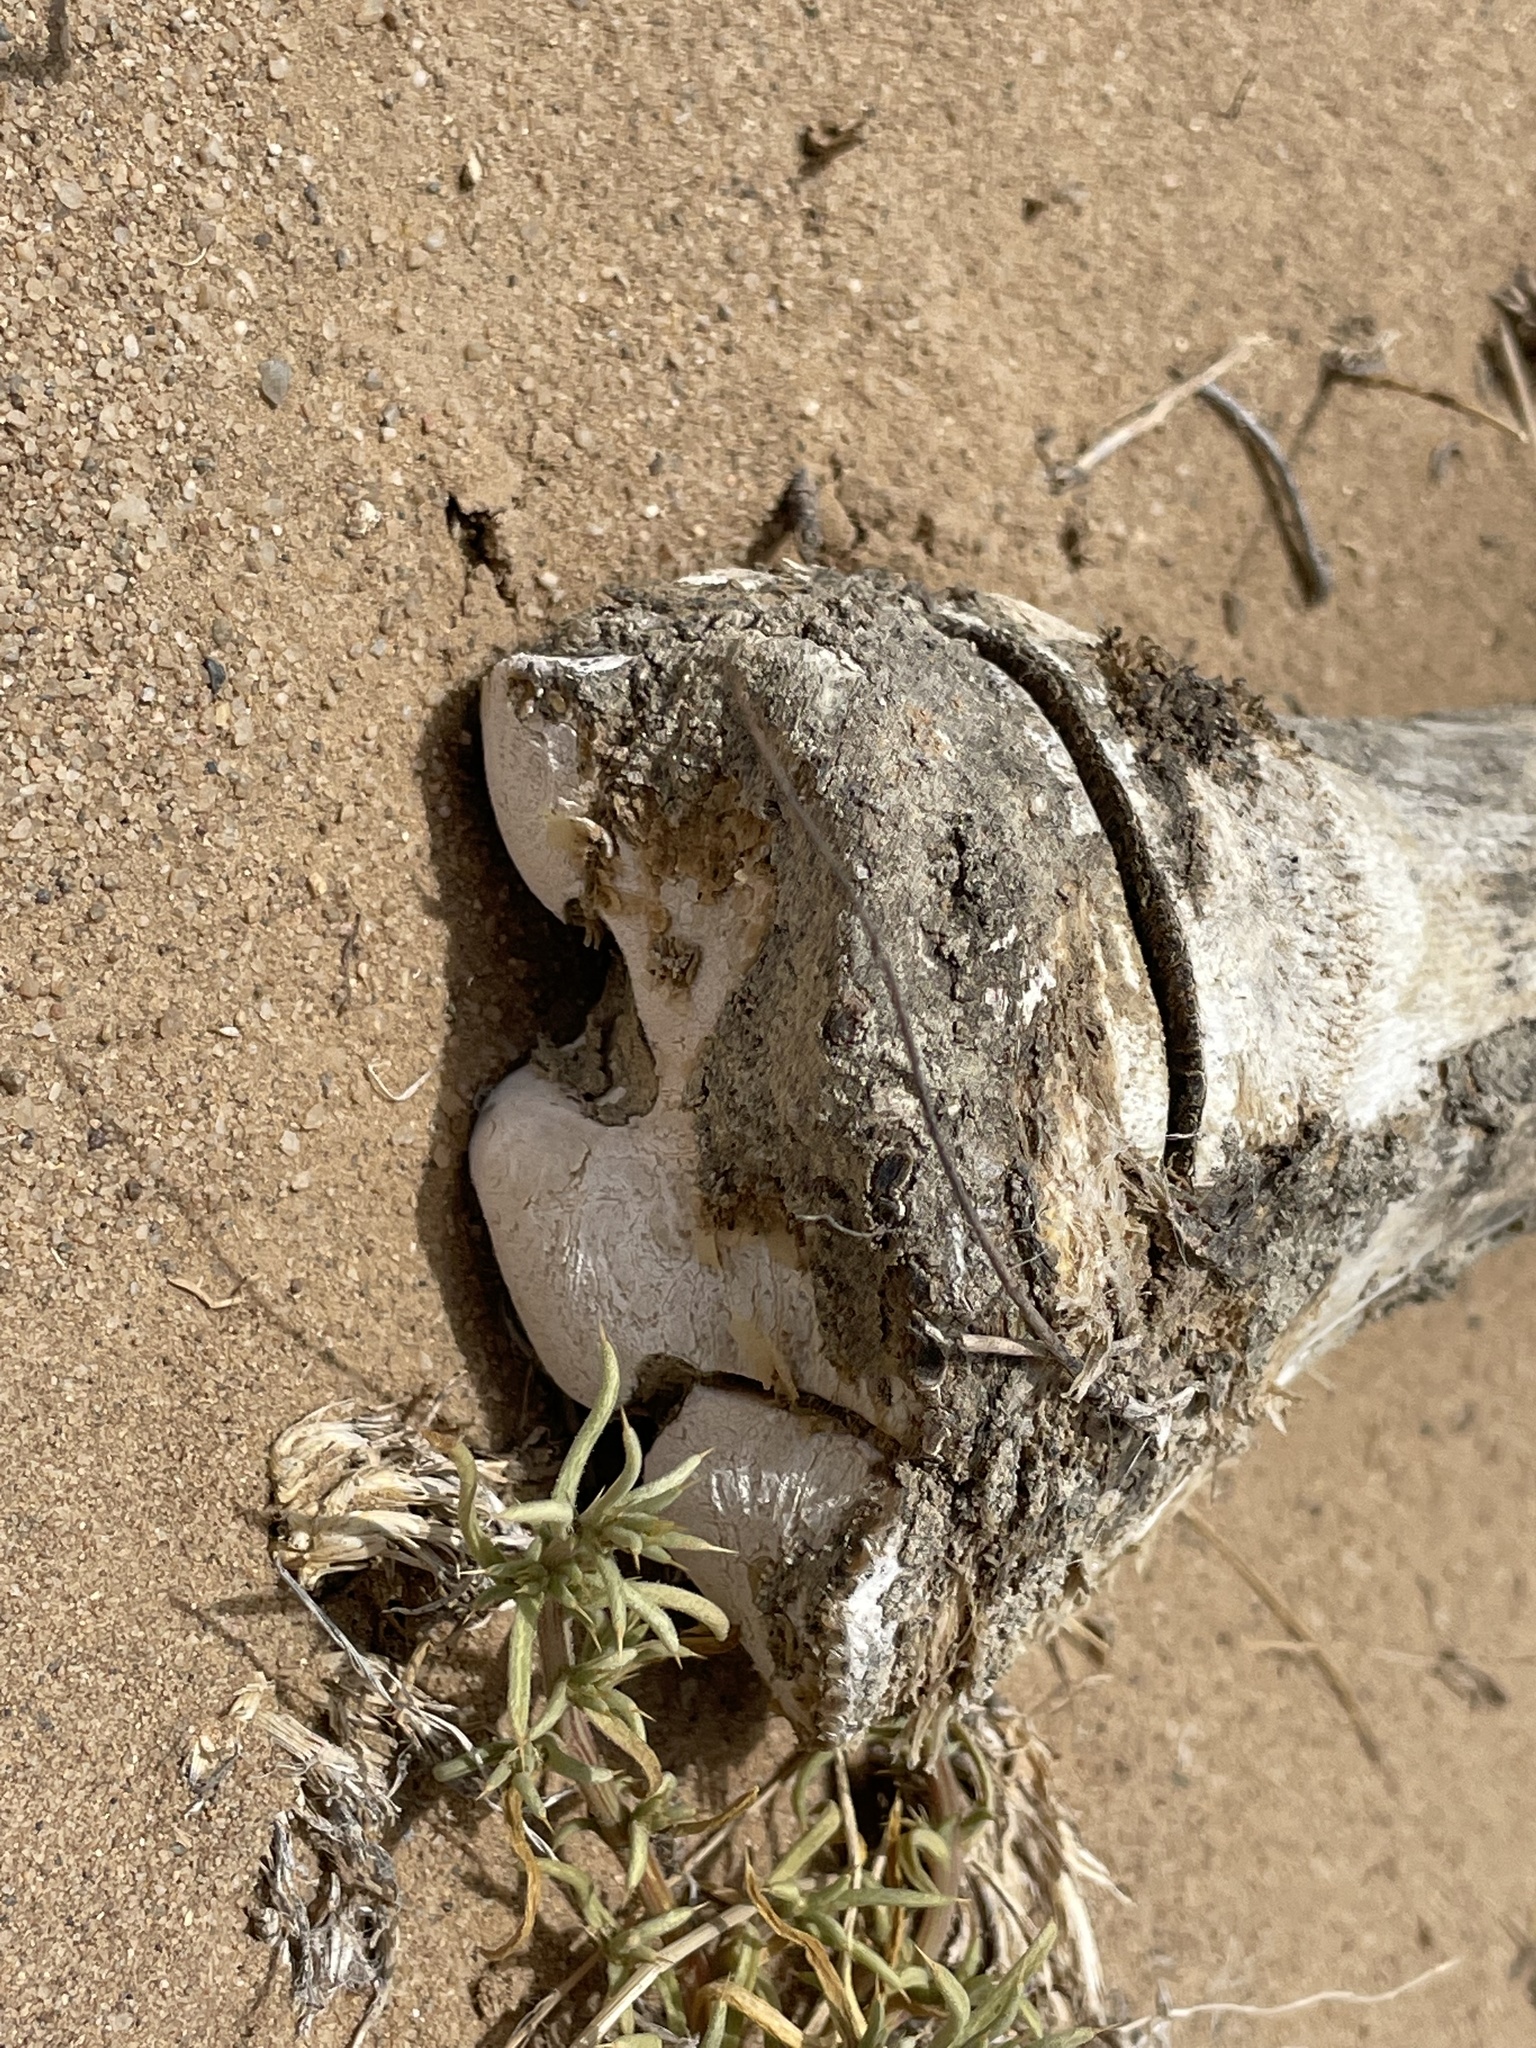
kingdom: Animalia
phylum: Chordata
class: Mammalia
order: Perissodactyla
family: Equidae
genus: Equus
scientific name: Equus caballus
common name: Horse
